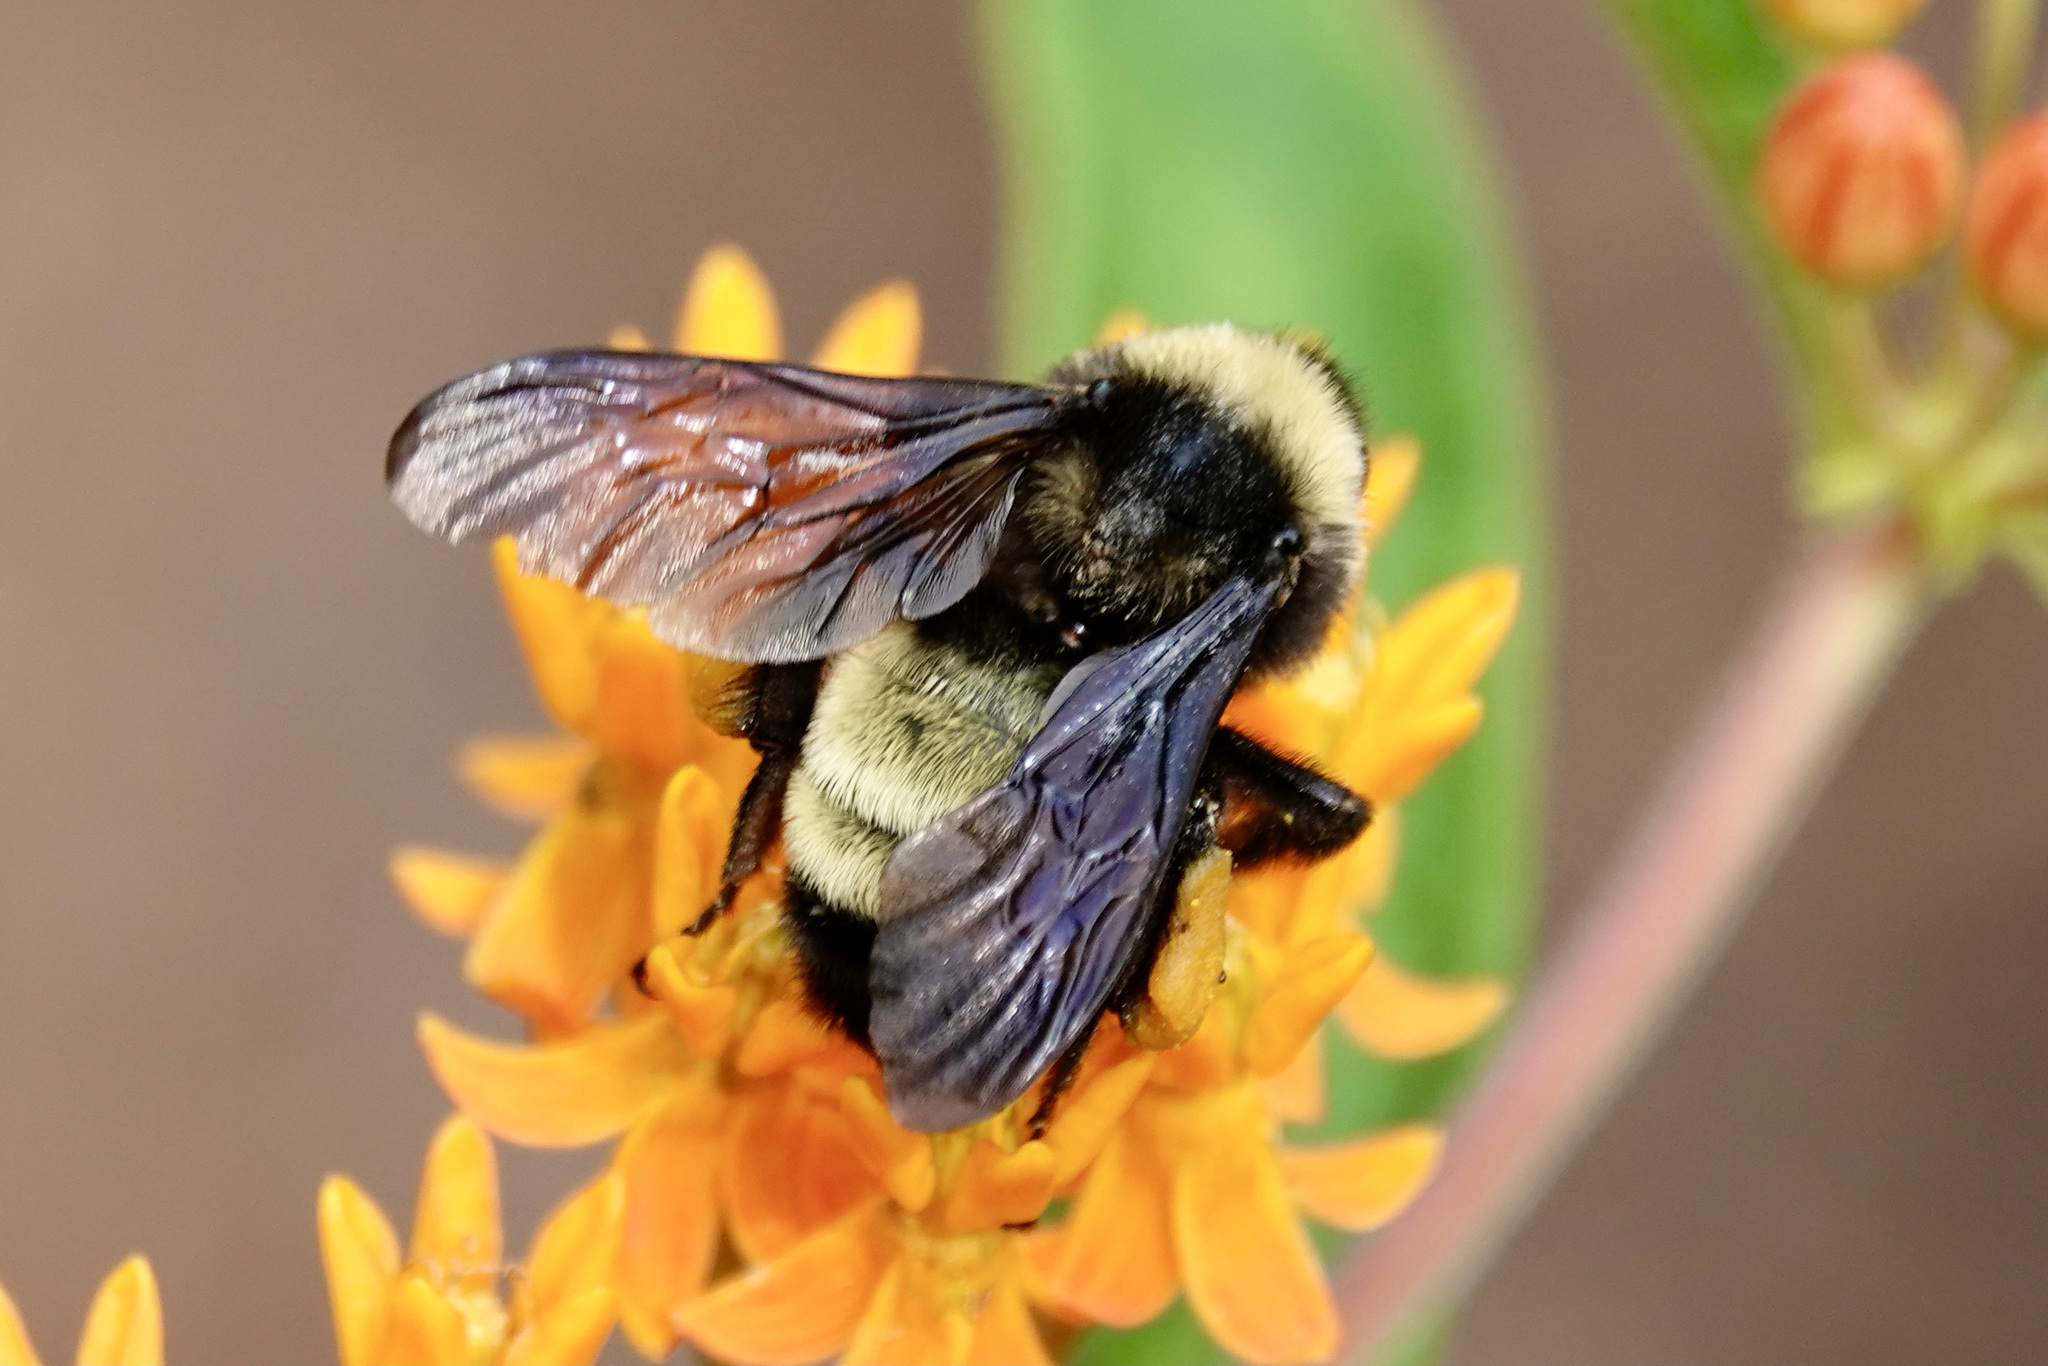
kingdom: Animalia
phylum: Arthropoda
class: Insecta
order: Hymenoptera
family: Apidae
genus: Bombus
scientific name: Bombus pensylvanicus
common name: Bumble bee
